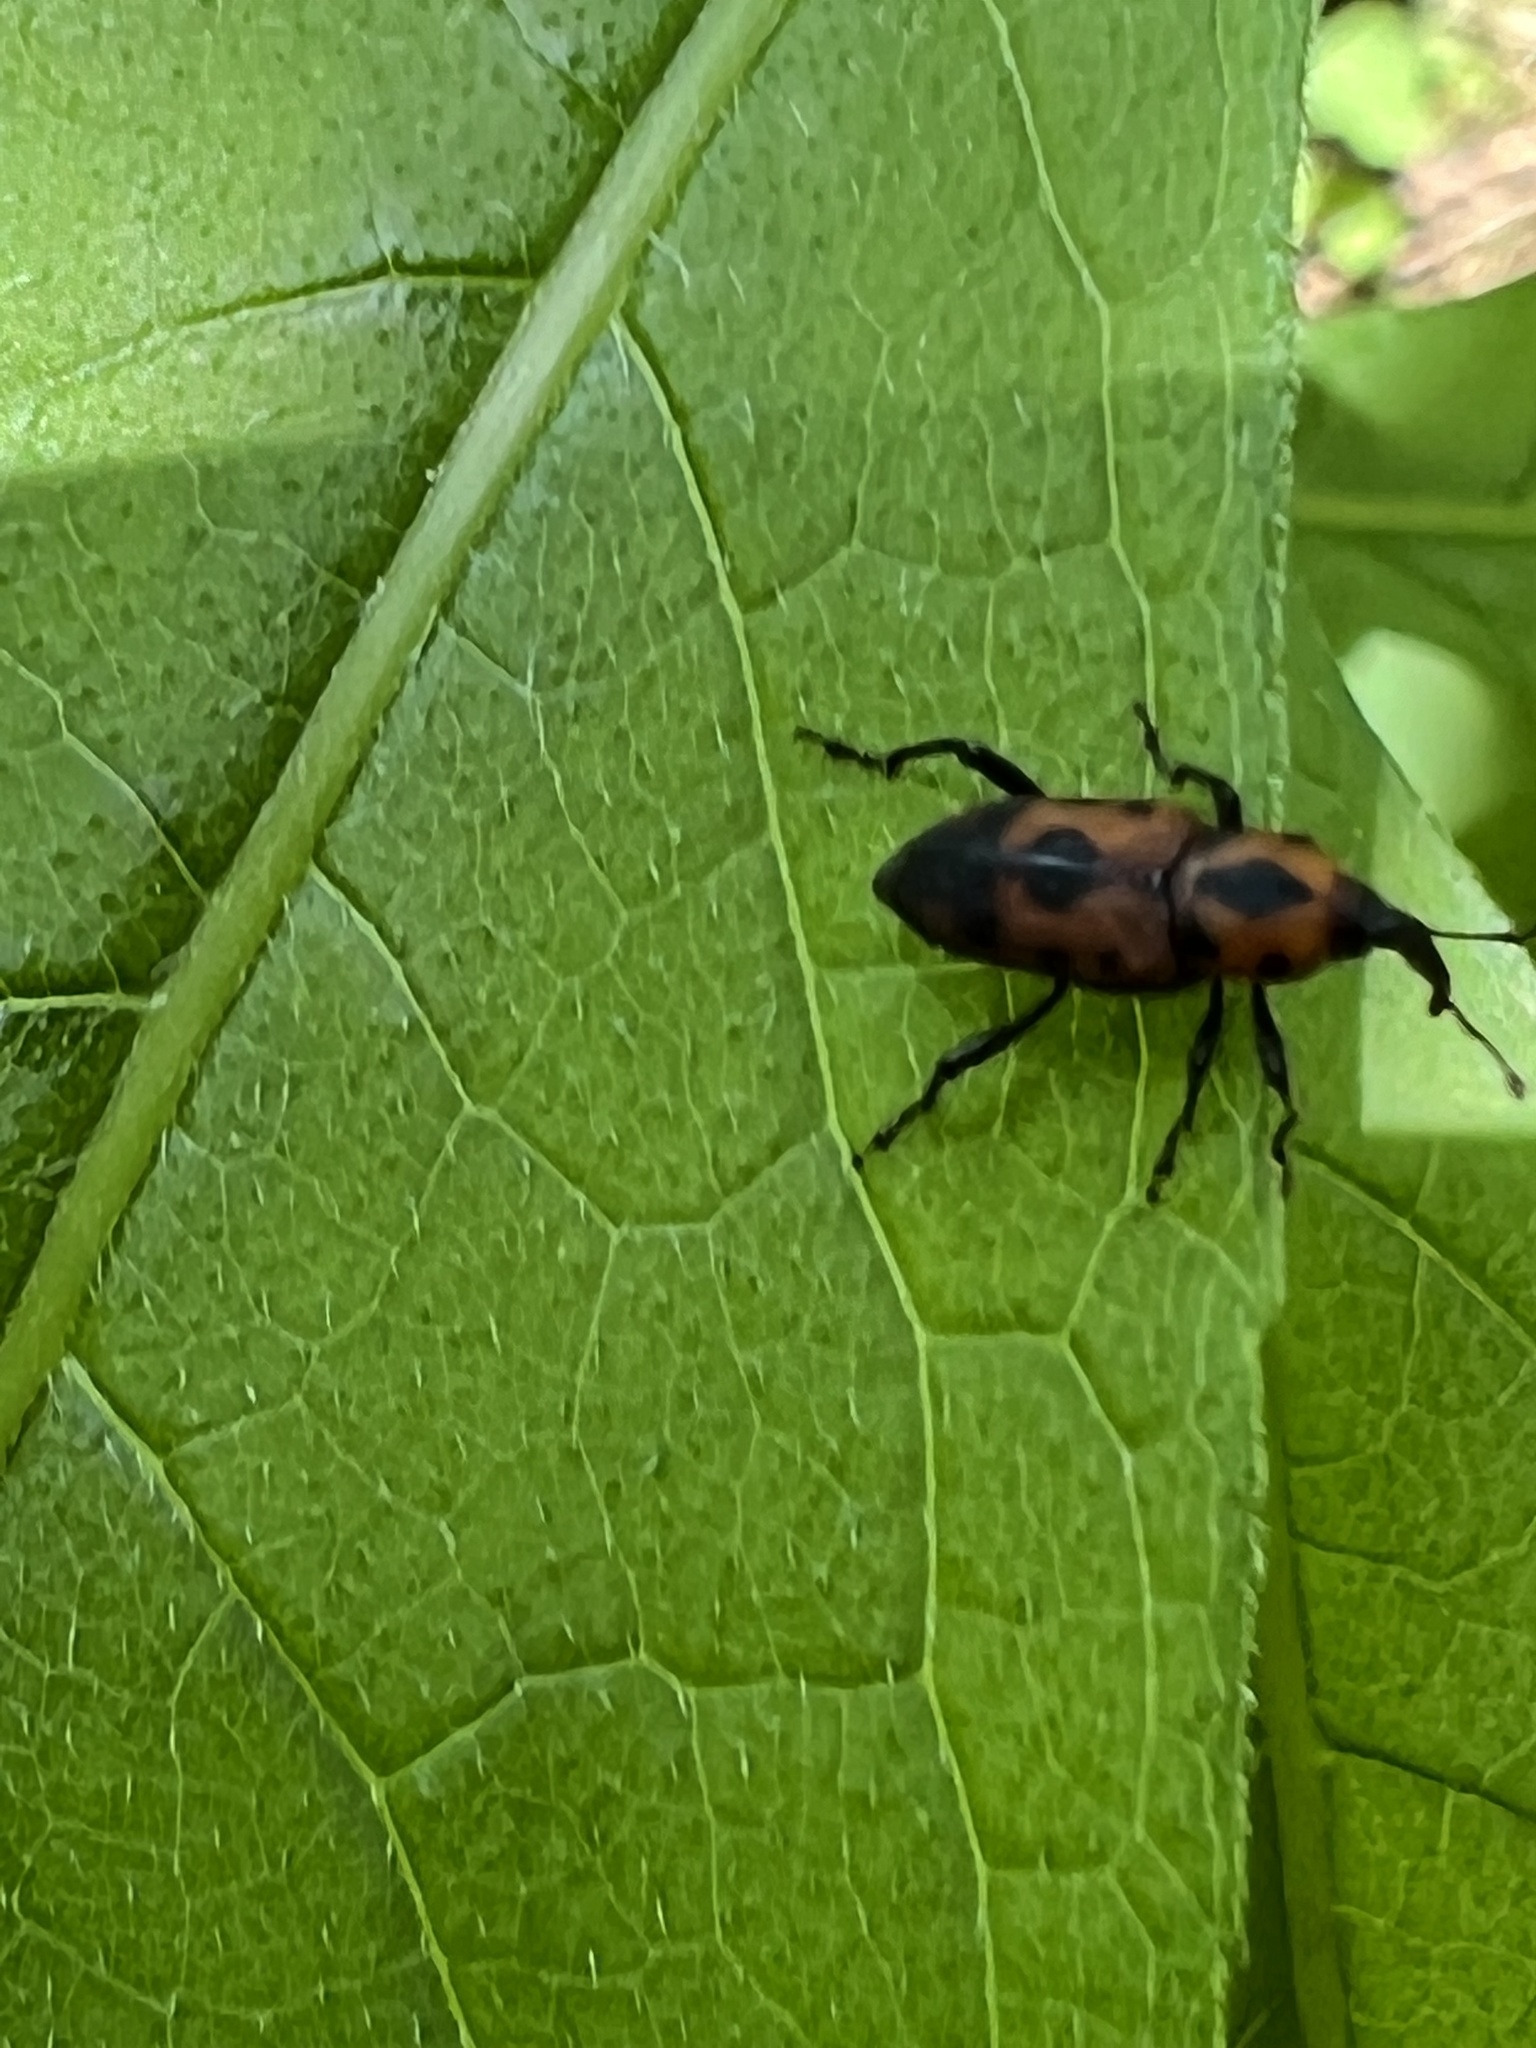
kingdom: Animalia
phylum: Arthropoda
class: Insecta
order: Coleoptera
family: Dryophthoridae
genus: Rhodobaenus
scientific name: Rhodobaenus quinquepunctatus
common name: Cocklebur weevil
